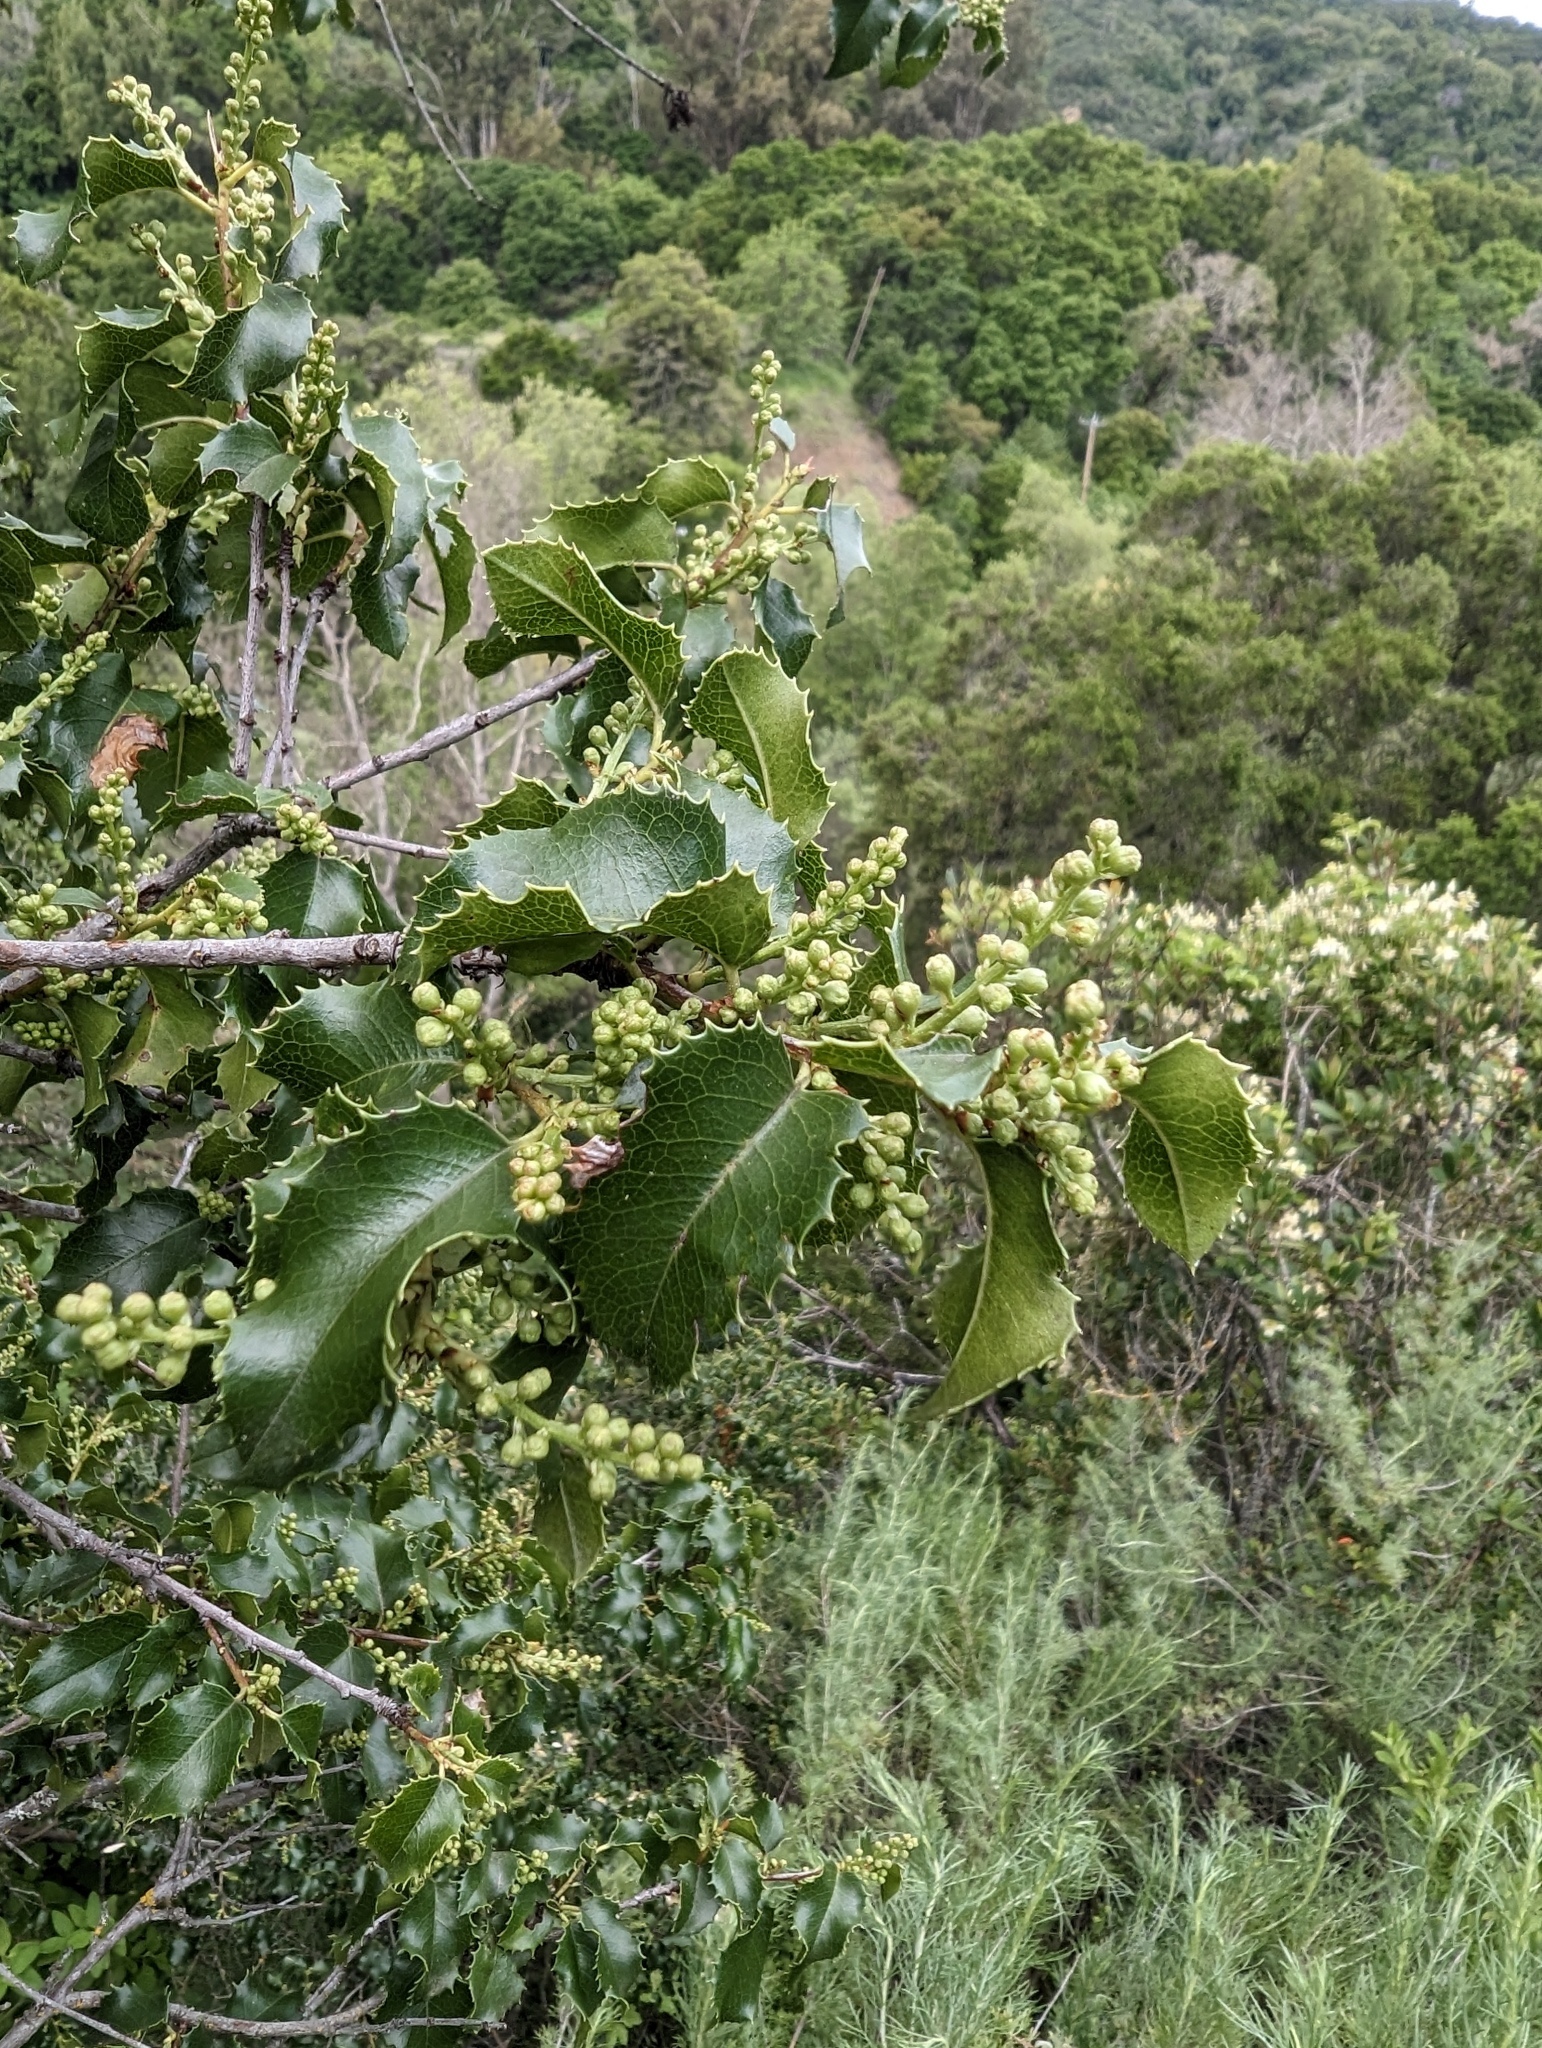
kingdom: Plantae
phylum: Tracheophyta
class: Magnoliopsida
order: Rosales
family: Rosaceae
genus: Prunus
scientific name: Prunus ilicifolia
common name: Hollyleaf cherry
